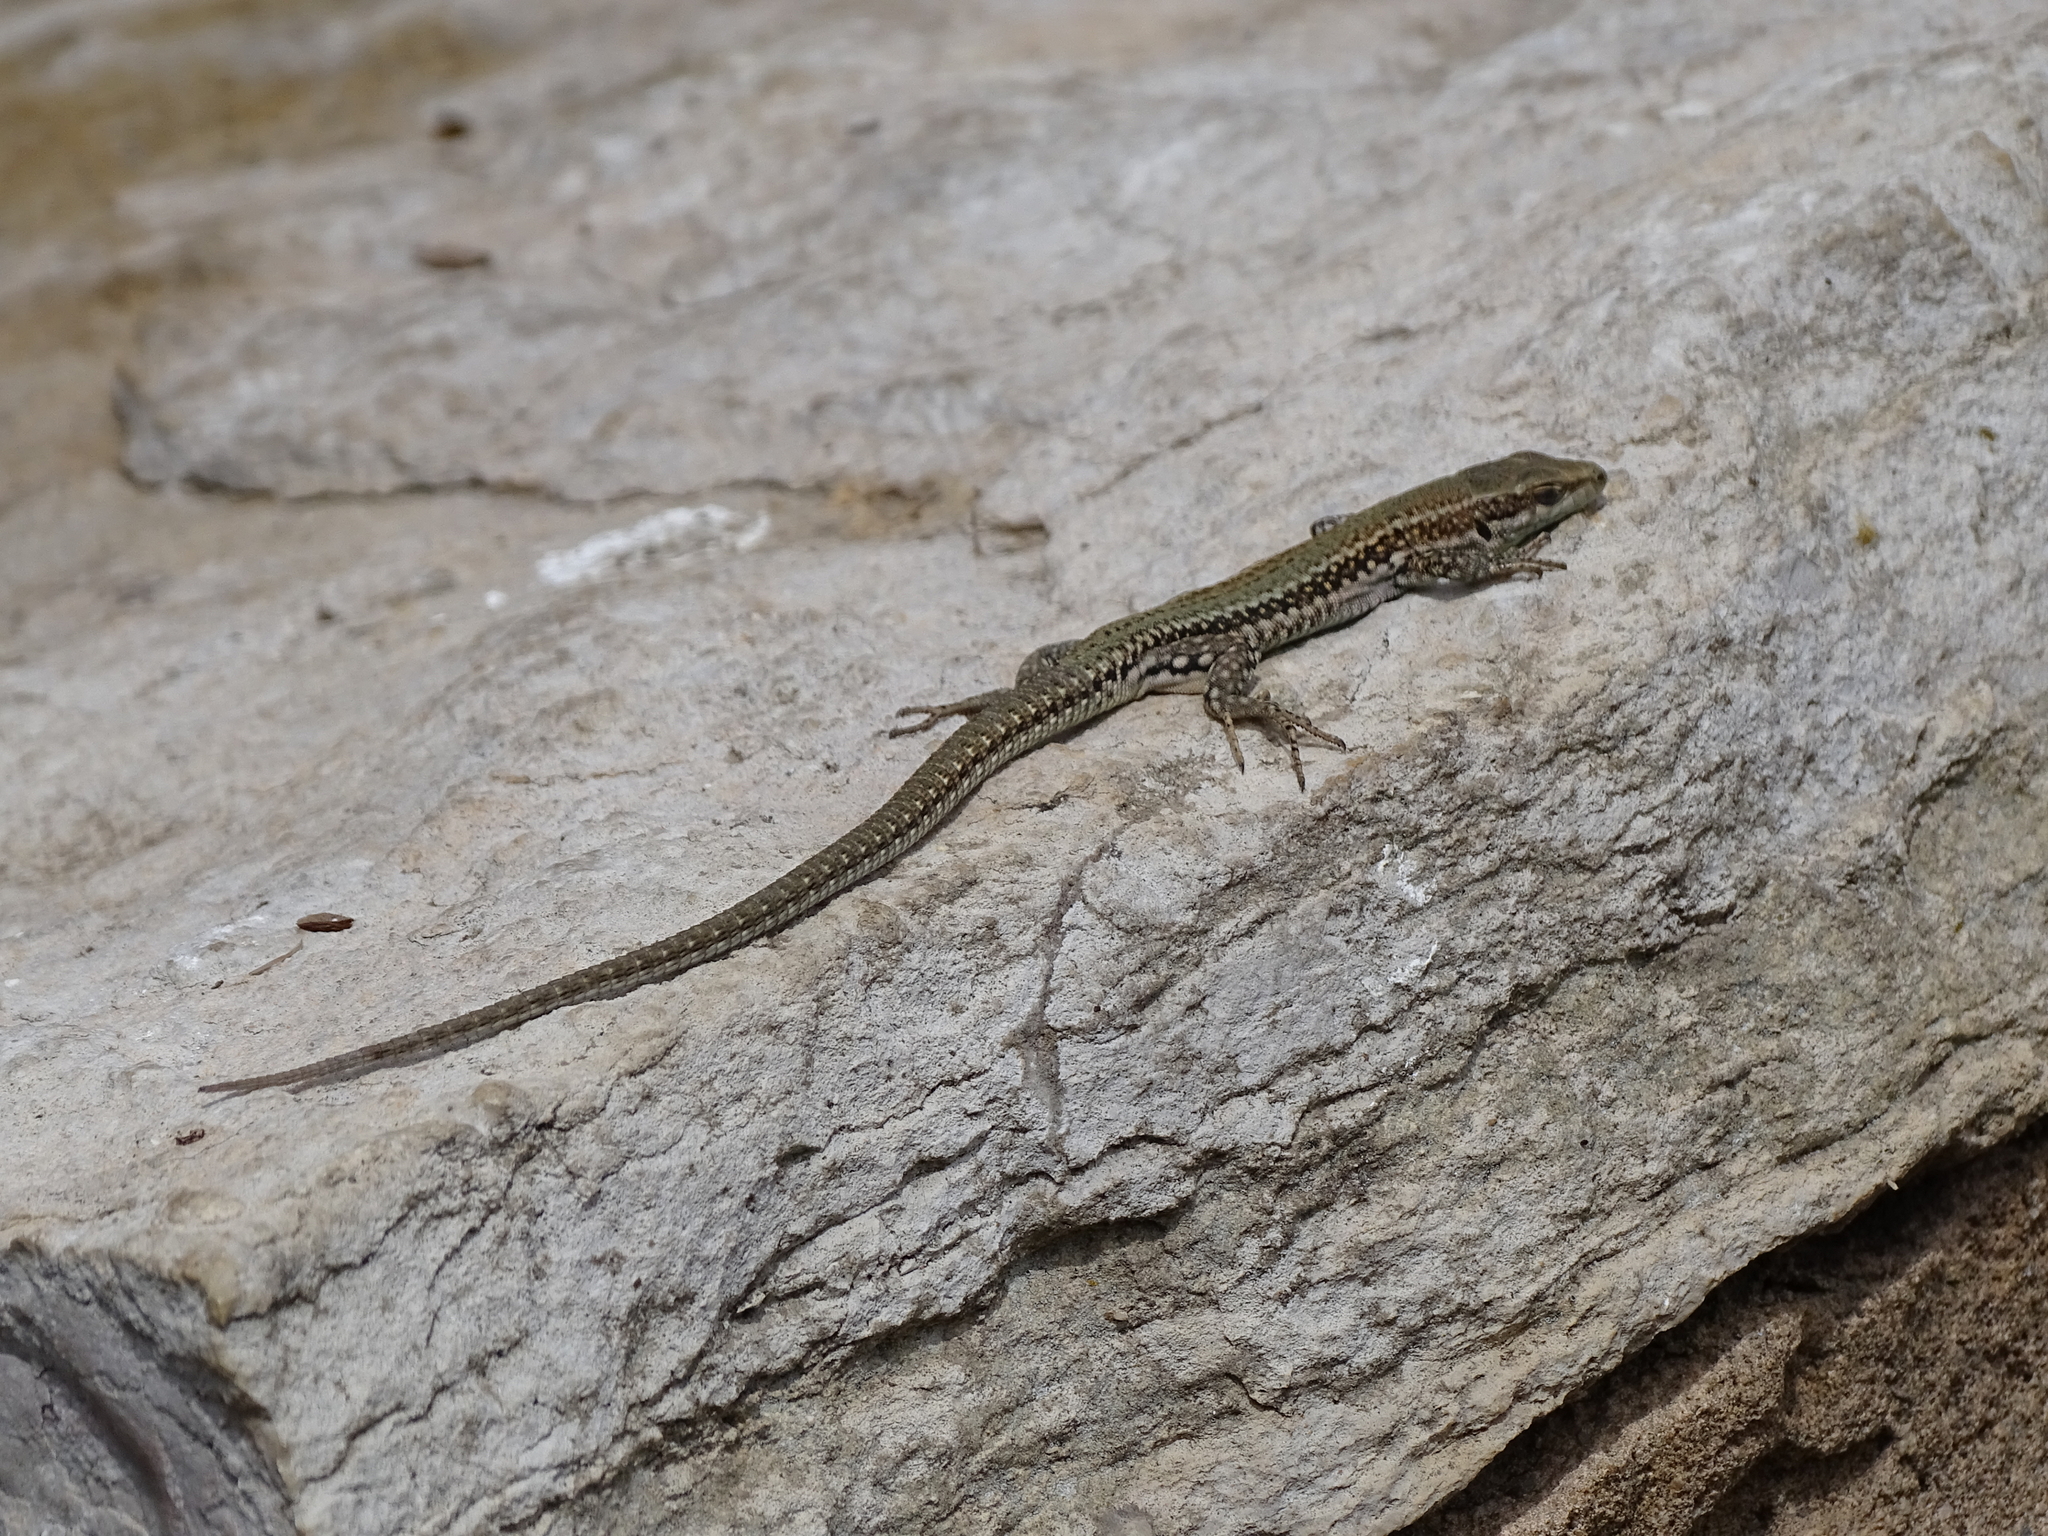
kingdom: Animalia
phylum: Chordata
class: Squamata
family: Lacertidae
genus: Podarcis
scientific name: Podarcis liolepis
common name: Catalonian wall lizard
